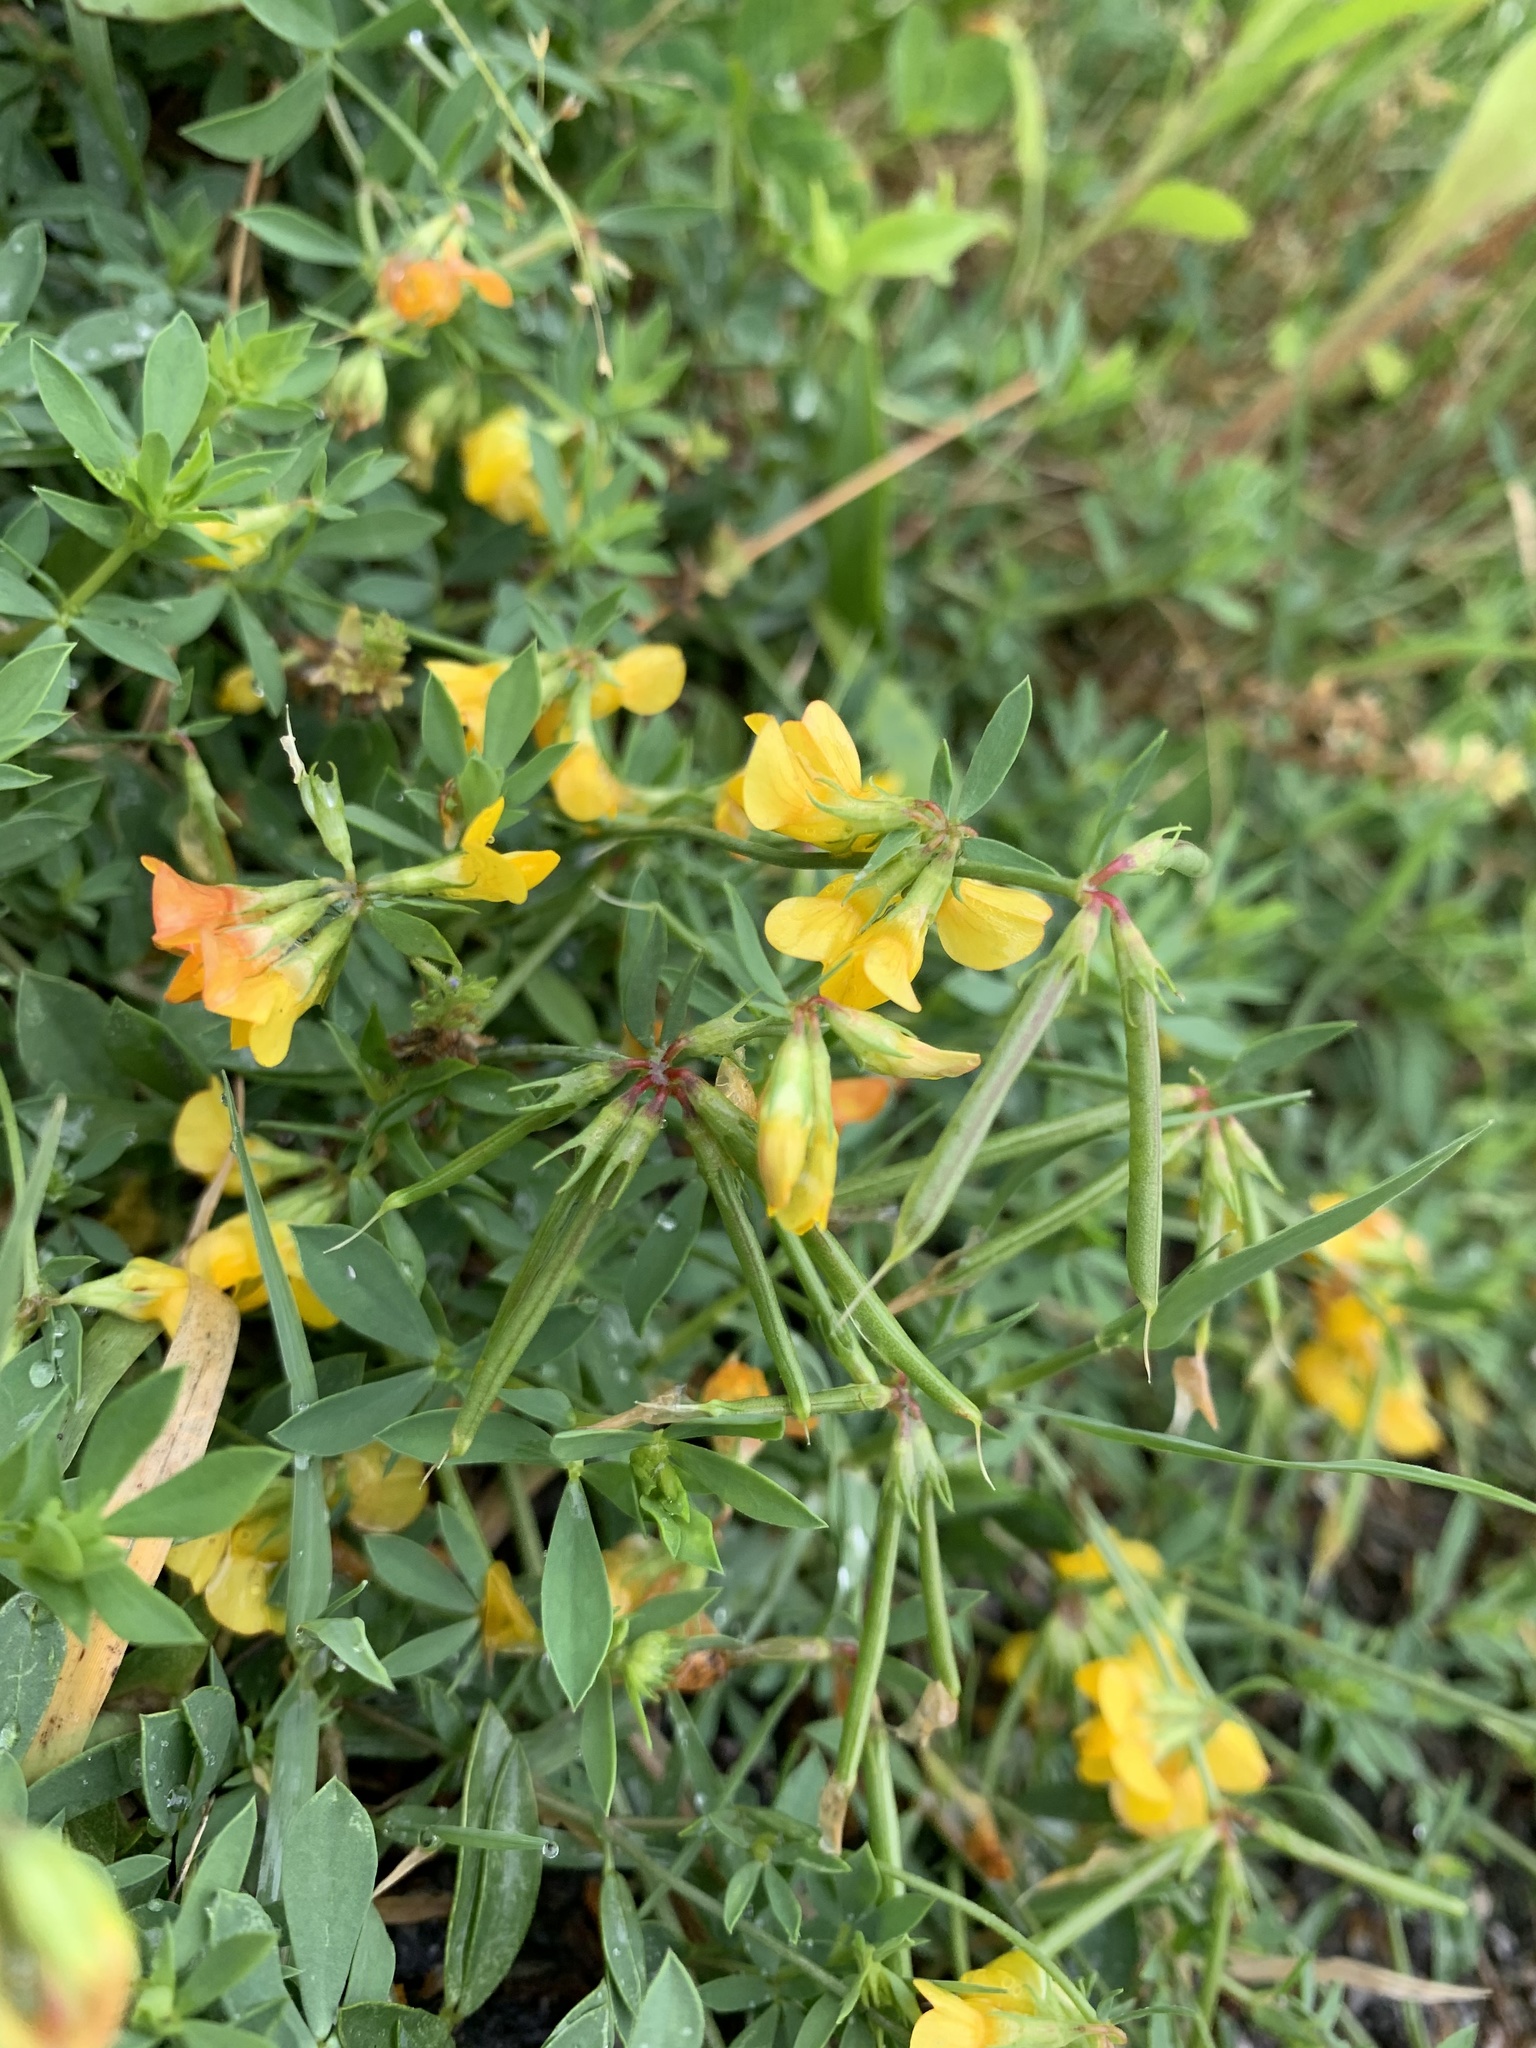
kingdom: Plantae
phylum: Tracheophyta
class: Magnoliopsida
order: Fabales
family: Fabaceae
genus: Lotus
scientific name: Lotus corniculatus
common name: Common bird's-foot-trefoil
